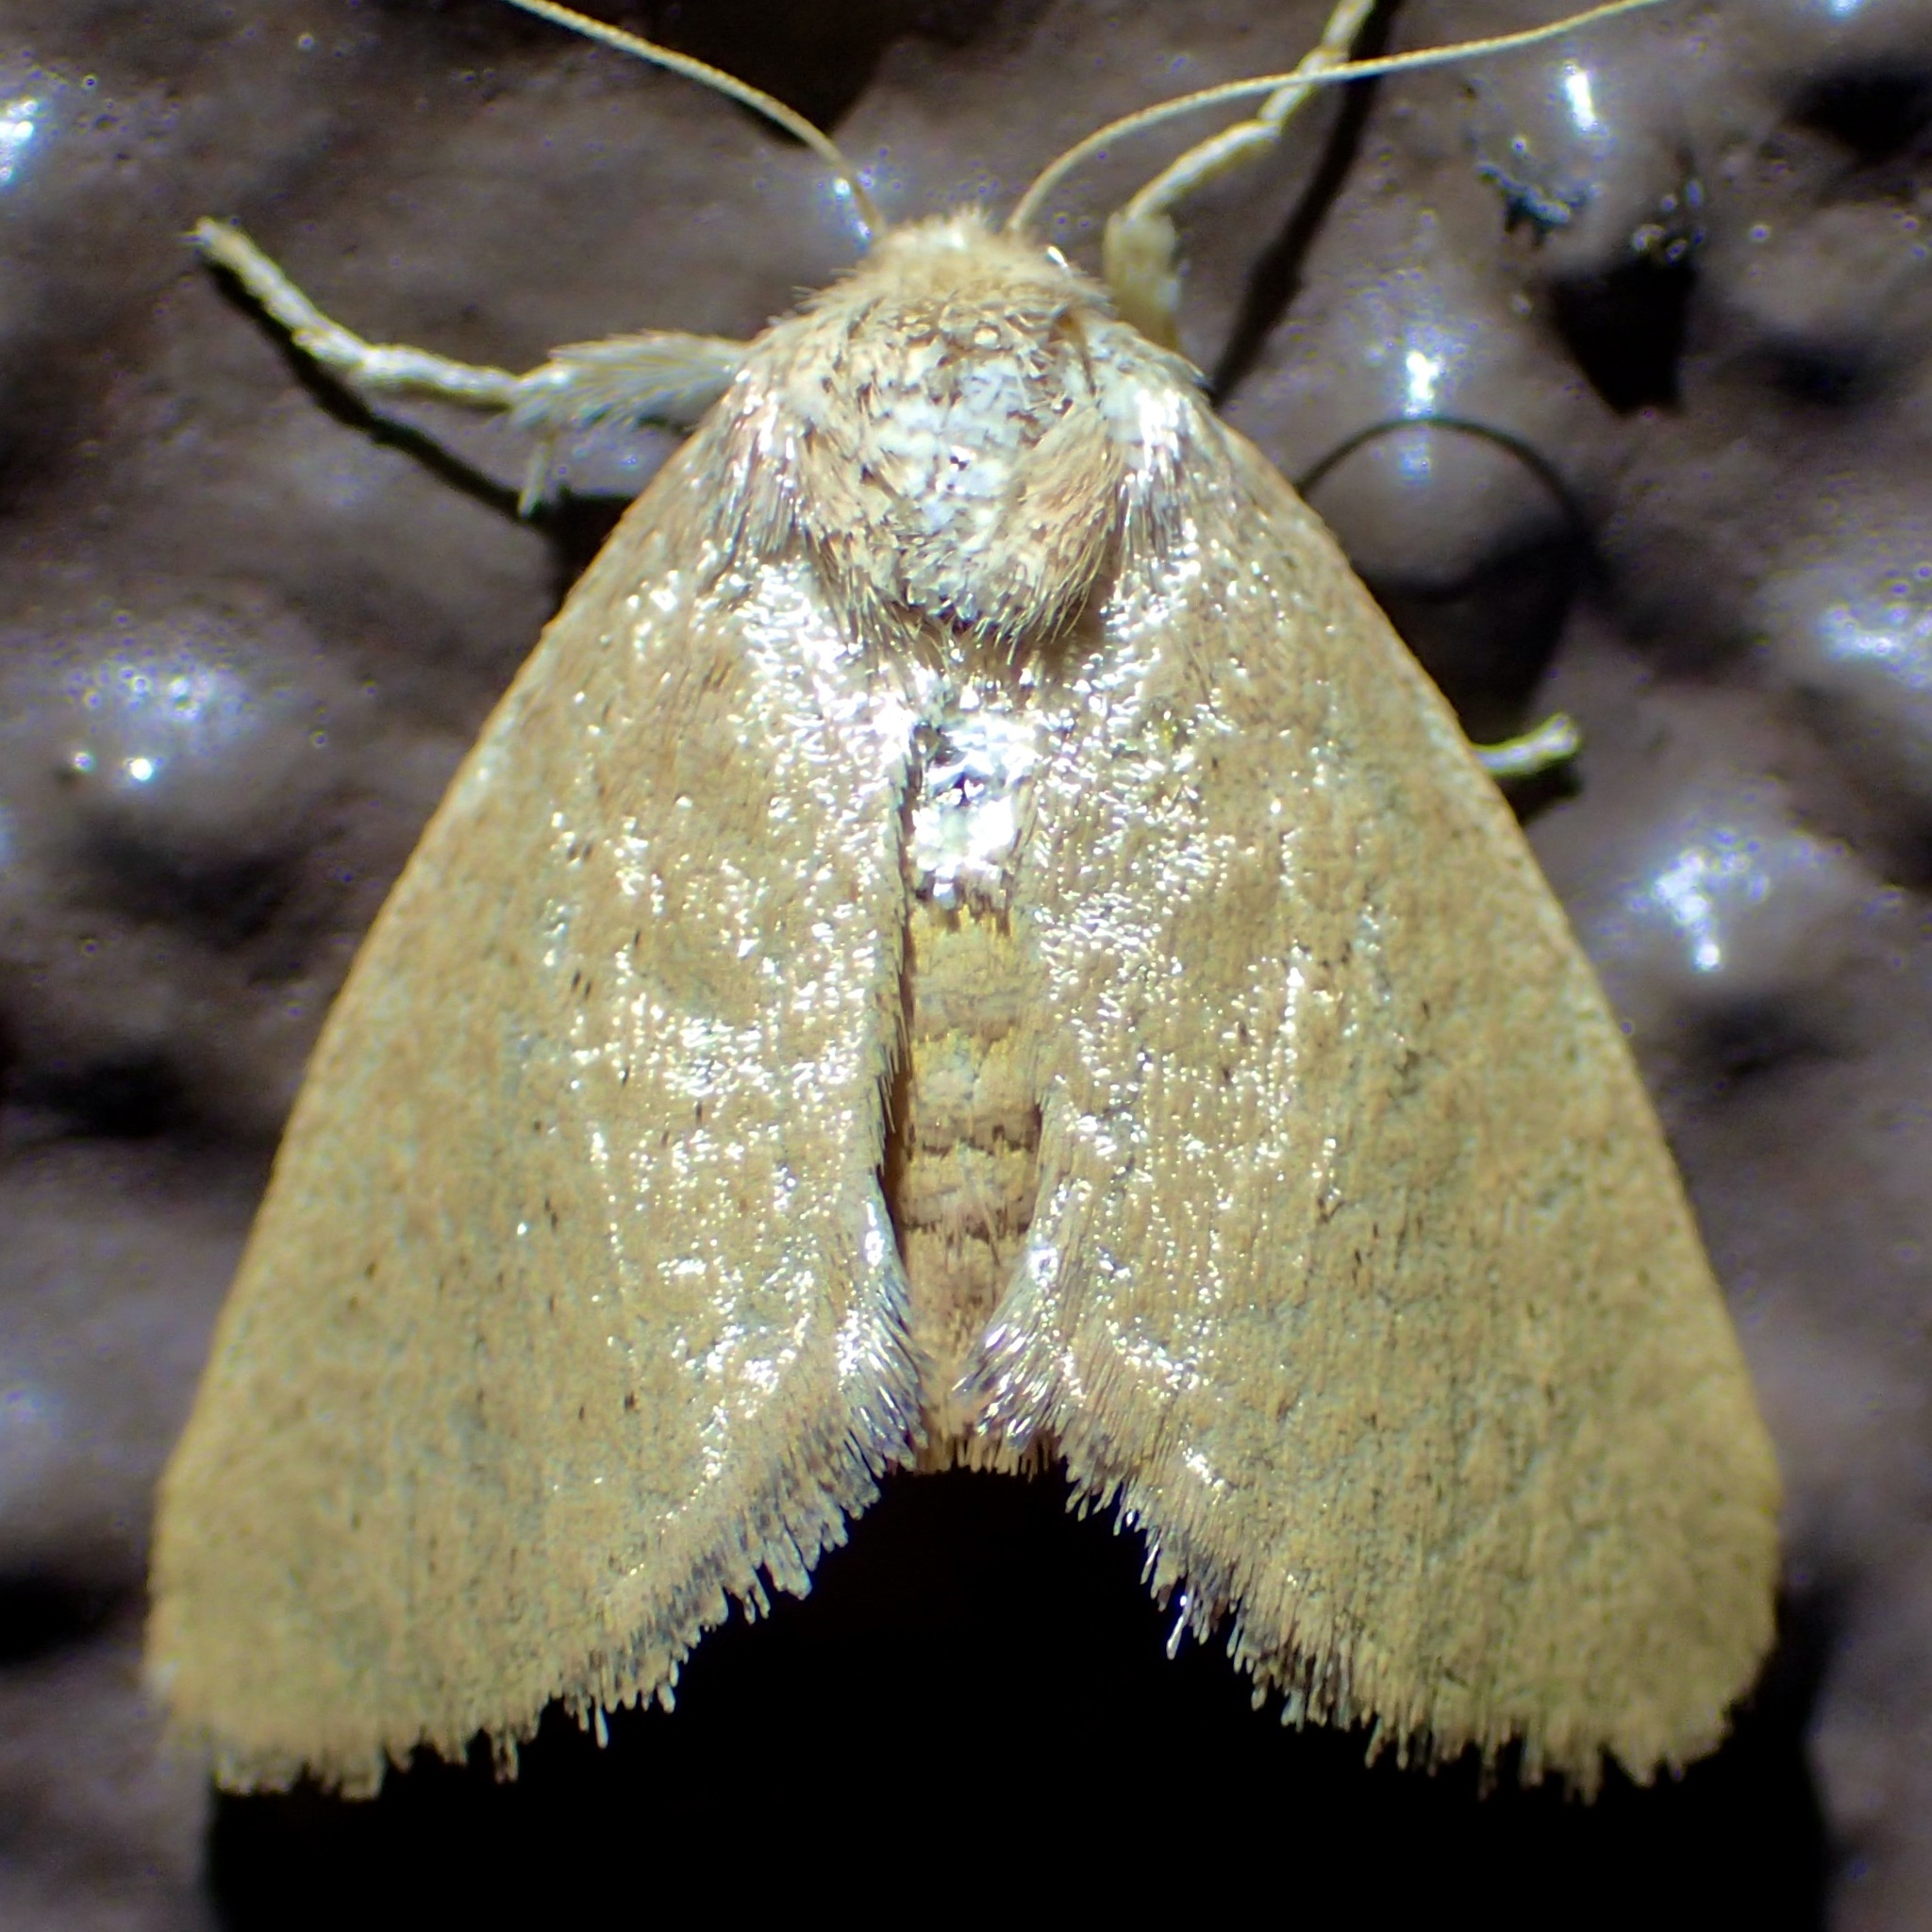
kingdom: Animalia
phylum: Arthropoda
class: Insecta
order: Lepidoptera
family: Limacodidae
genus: Isa
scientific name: Isa schaefferana
